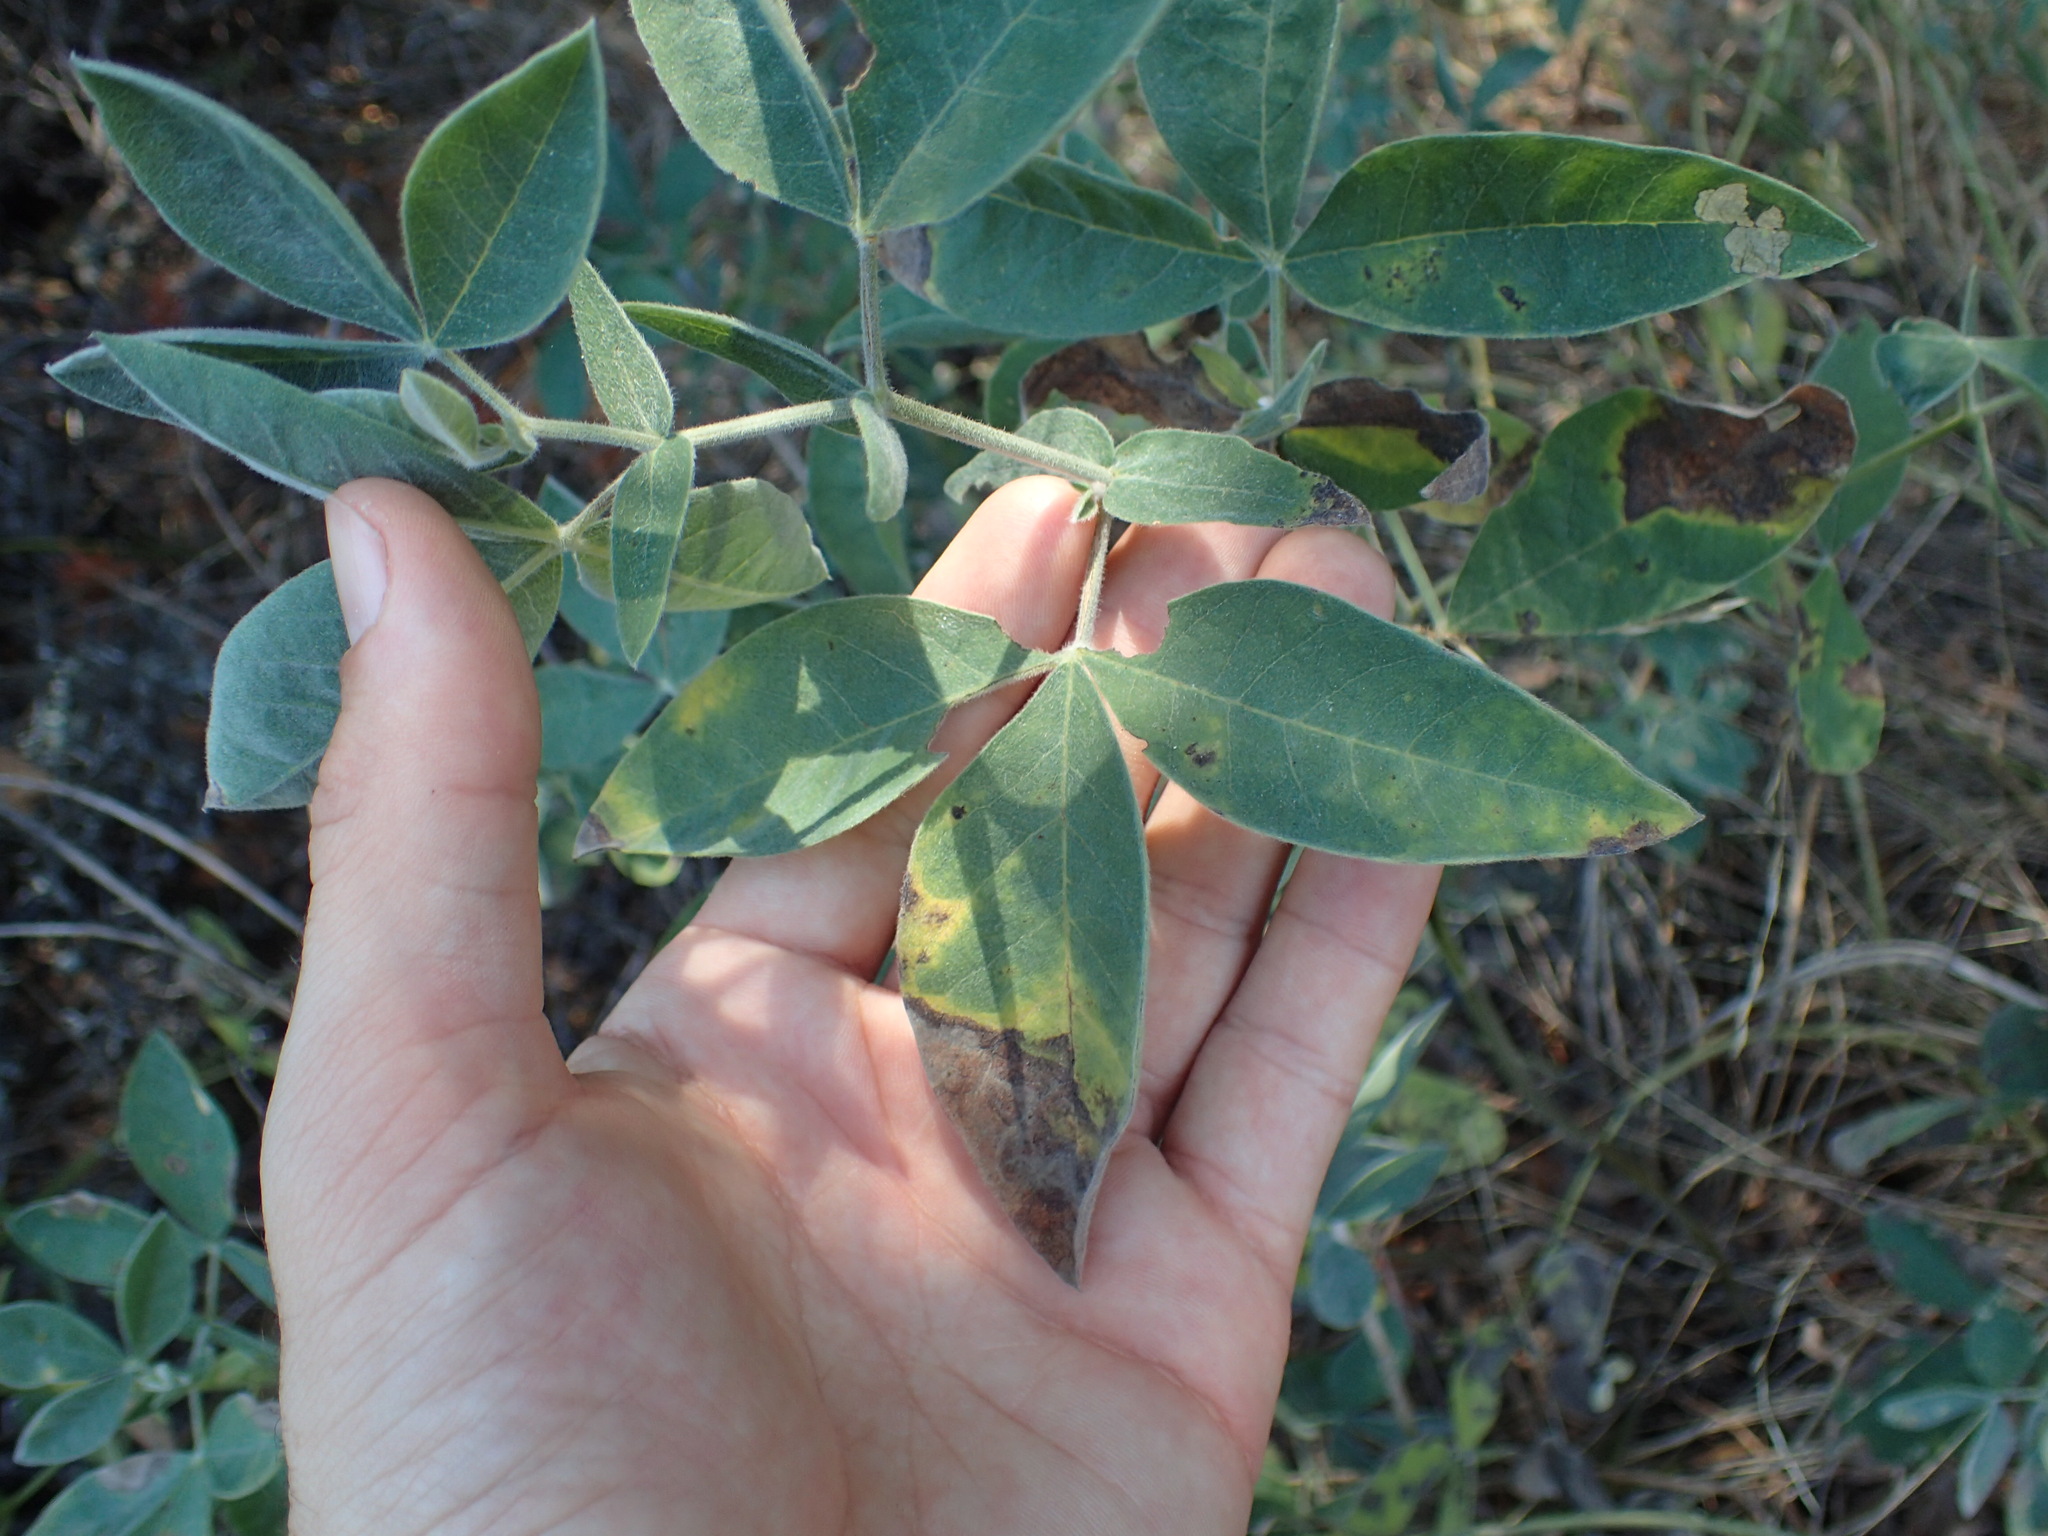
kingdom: Plantae
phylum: Tracheophyta
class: Magnoliopsida
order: Fabales
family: Fabaceae
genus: Thermopsis
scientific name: Thermopsis californica
